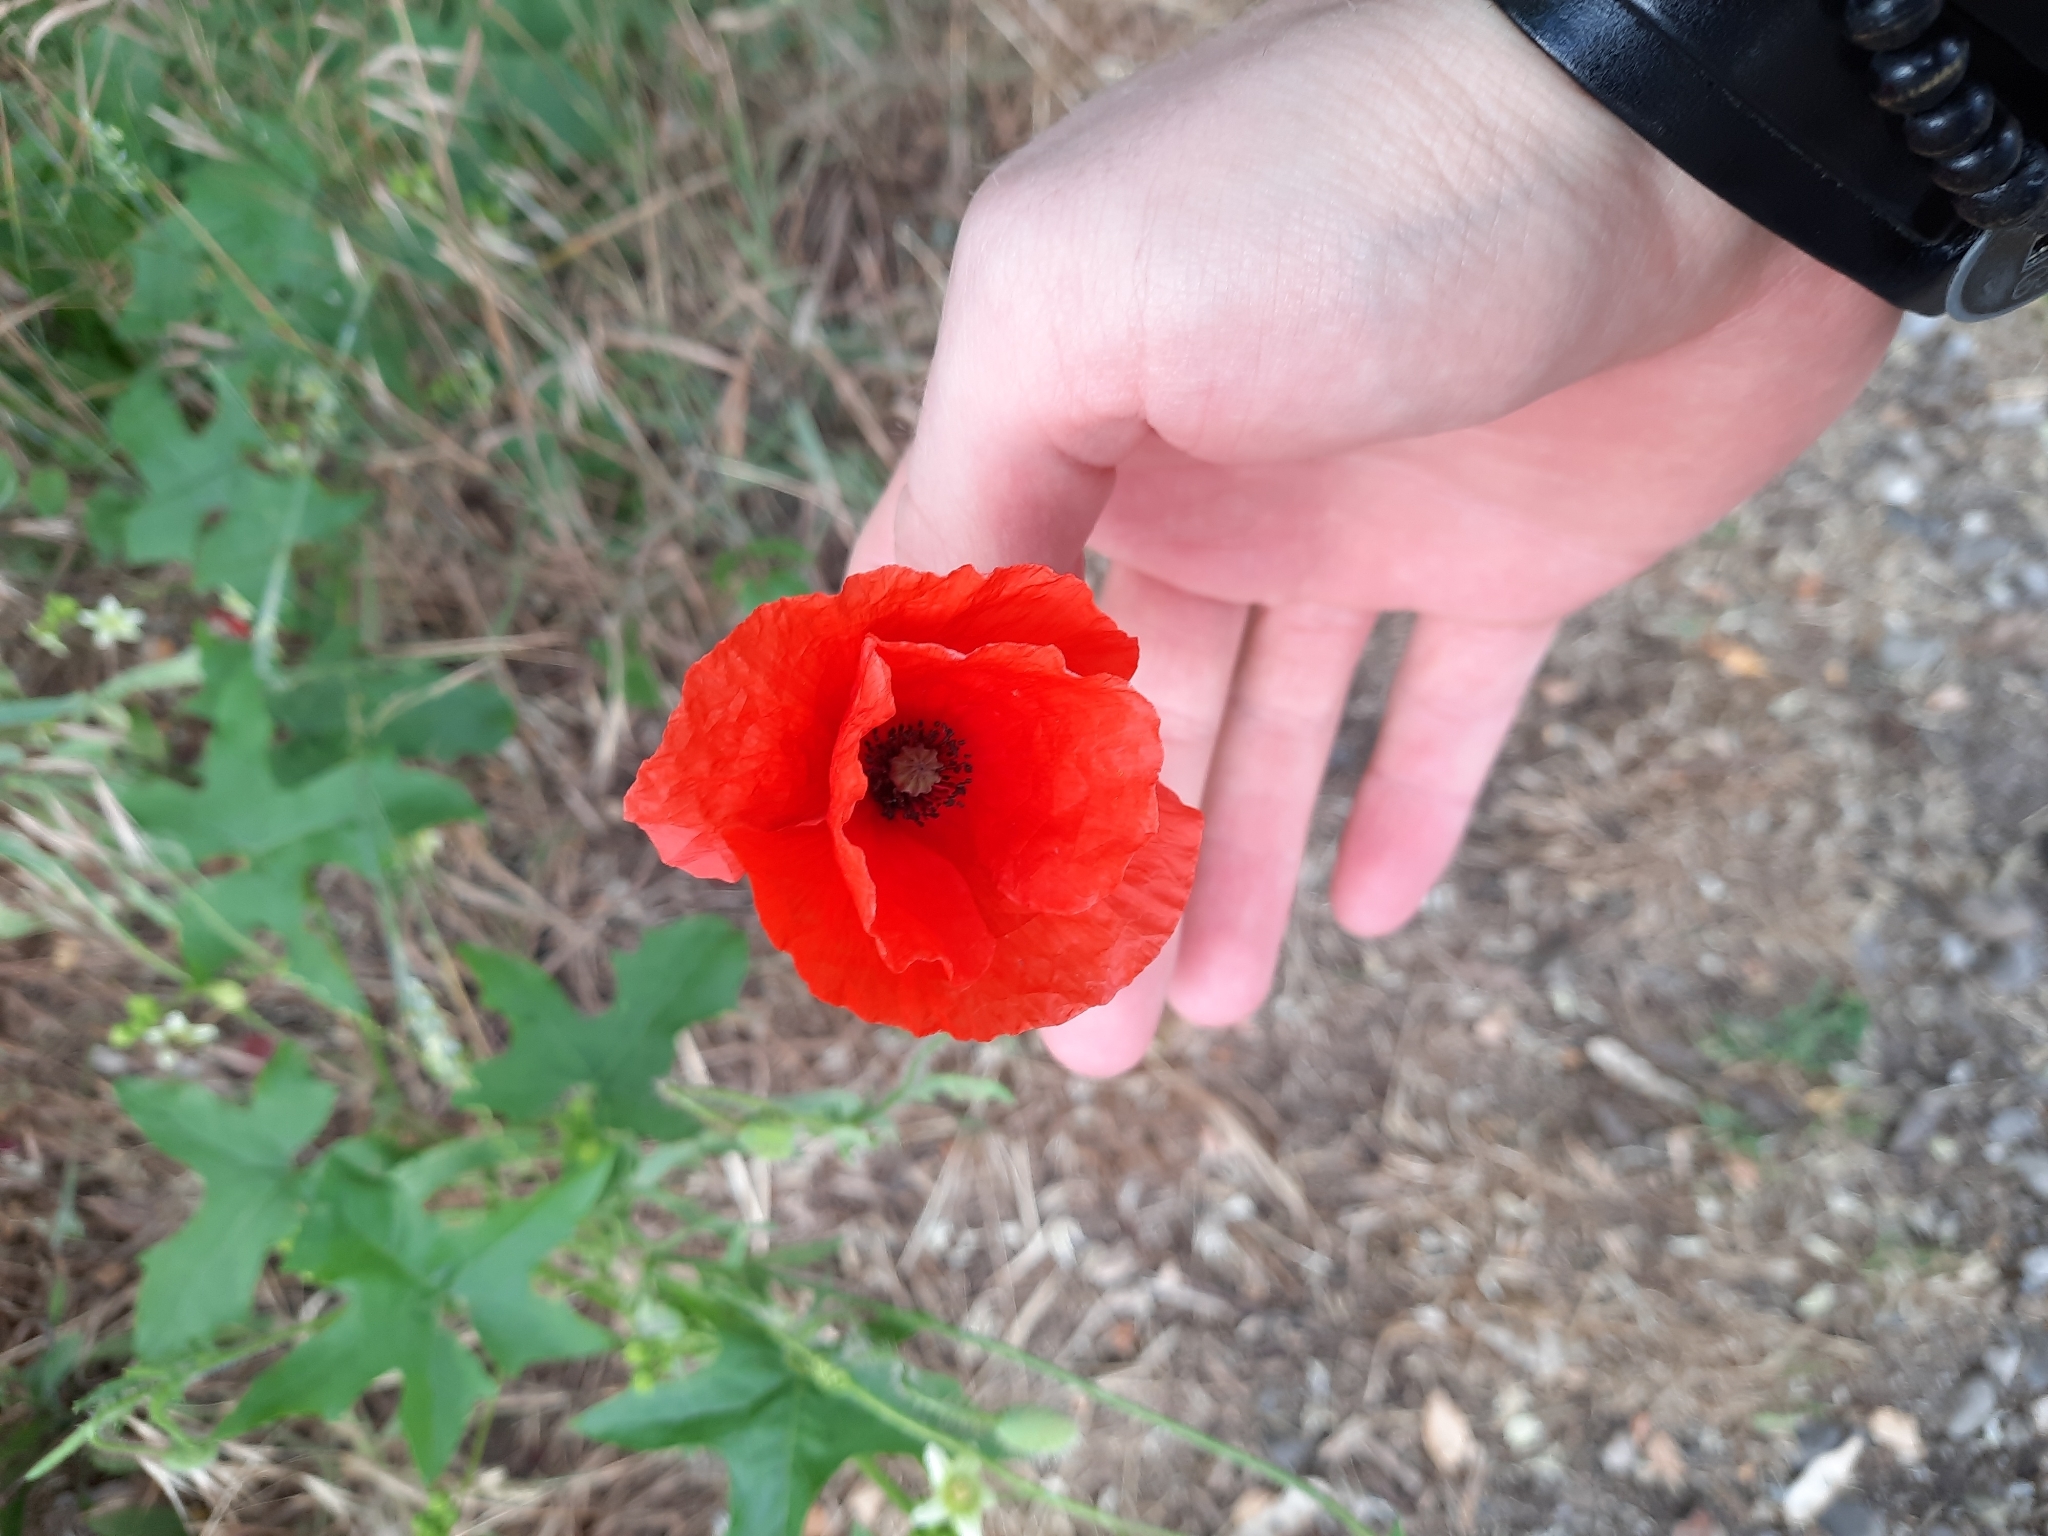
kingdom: Plantae
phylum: Tracheophyta
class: Magnoliopsida
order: Ranunculales
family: Papaveraceae
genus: Papaver
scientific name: Papaver rhoeas
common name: Corn poppy
